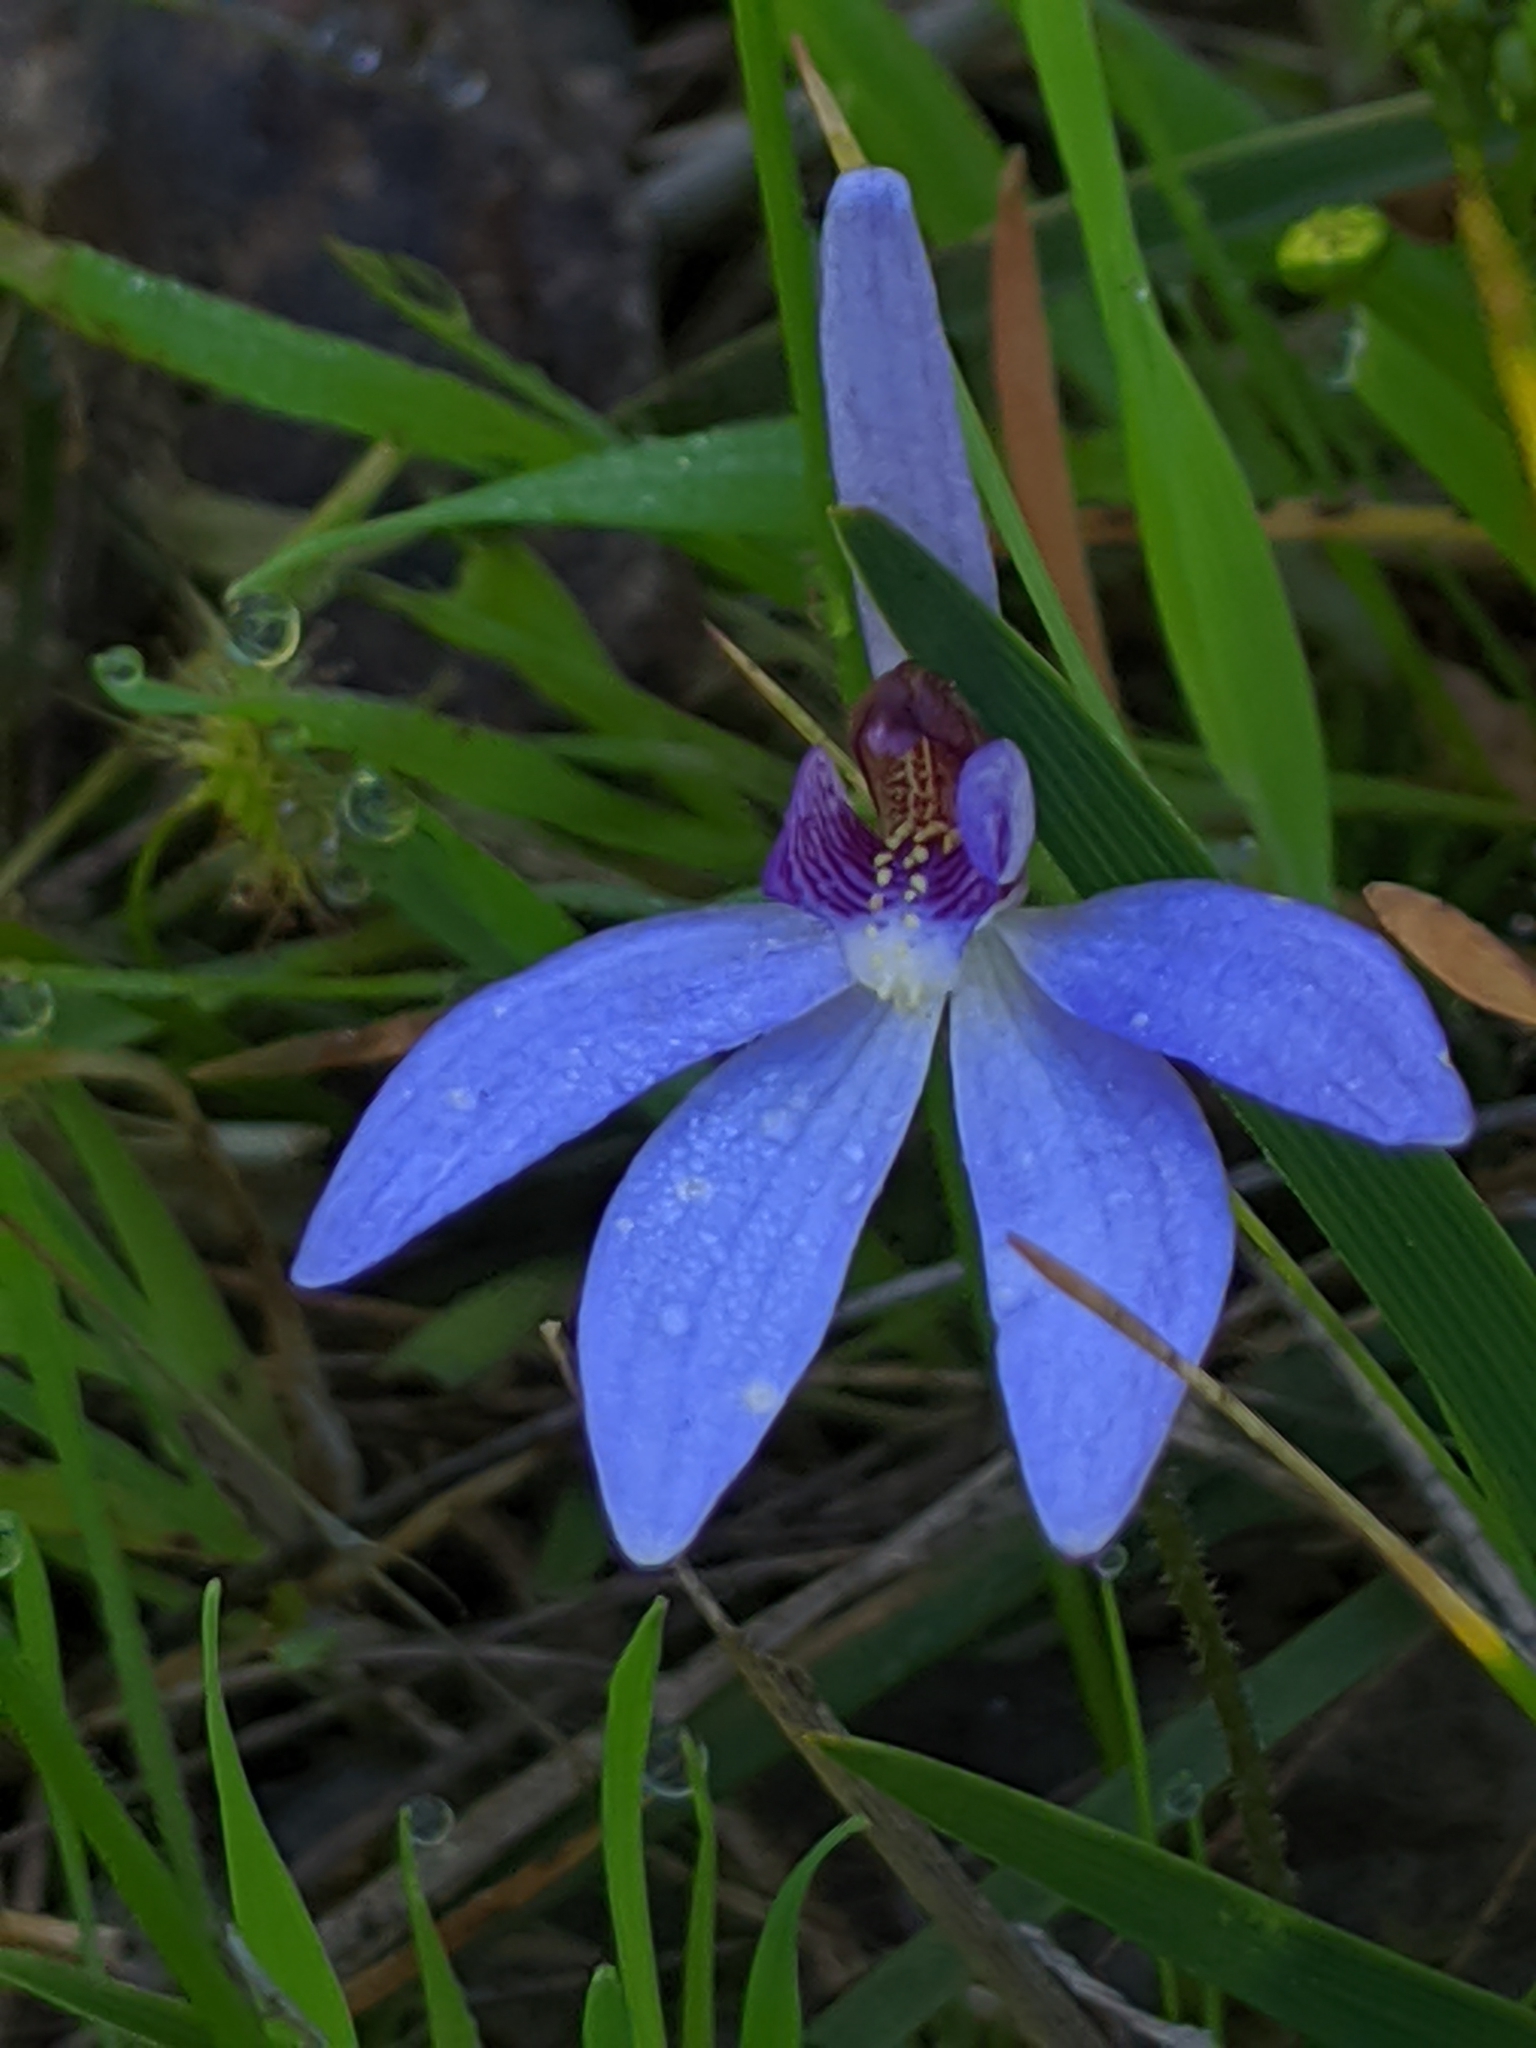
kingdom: Plantae
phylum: Tracheophyta
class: Liliopsida
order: Asparagales
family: Orchidaceae
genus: Caladenia
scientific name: Caladenia caerulea
